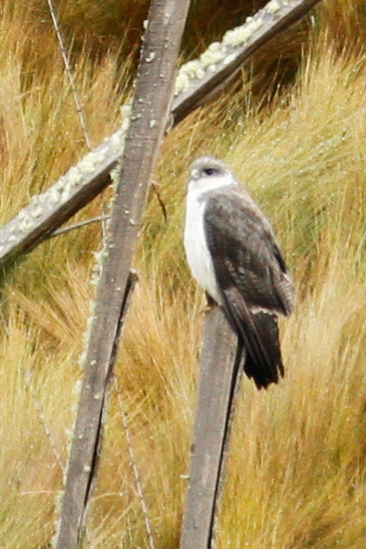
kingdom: Animalia
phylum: Chordata
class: Aves
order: Accipitriformes
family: Accipitridae
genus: Buteo
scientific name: Buteo polyosoma
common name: Variable hawk
